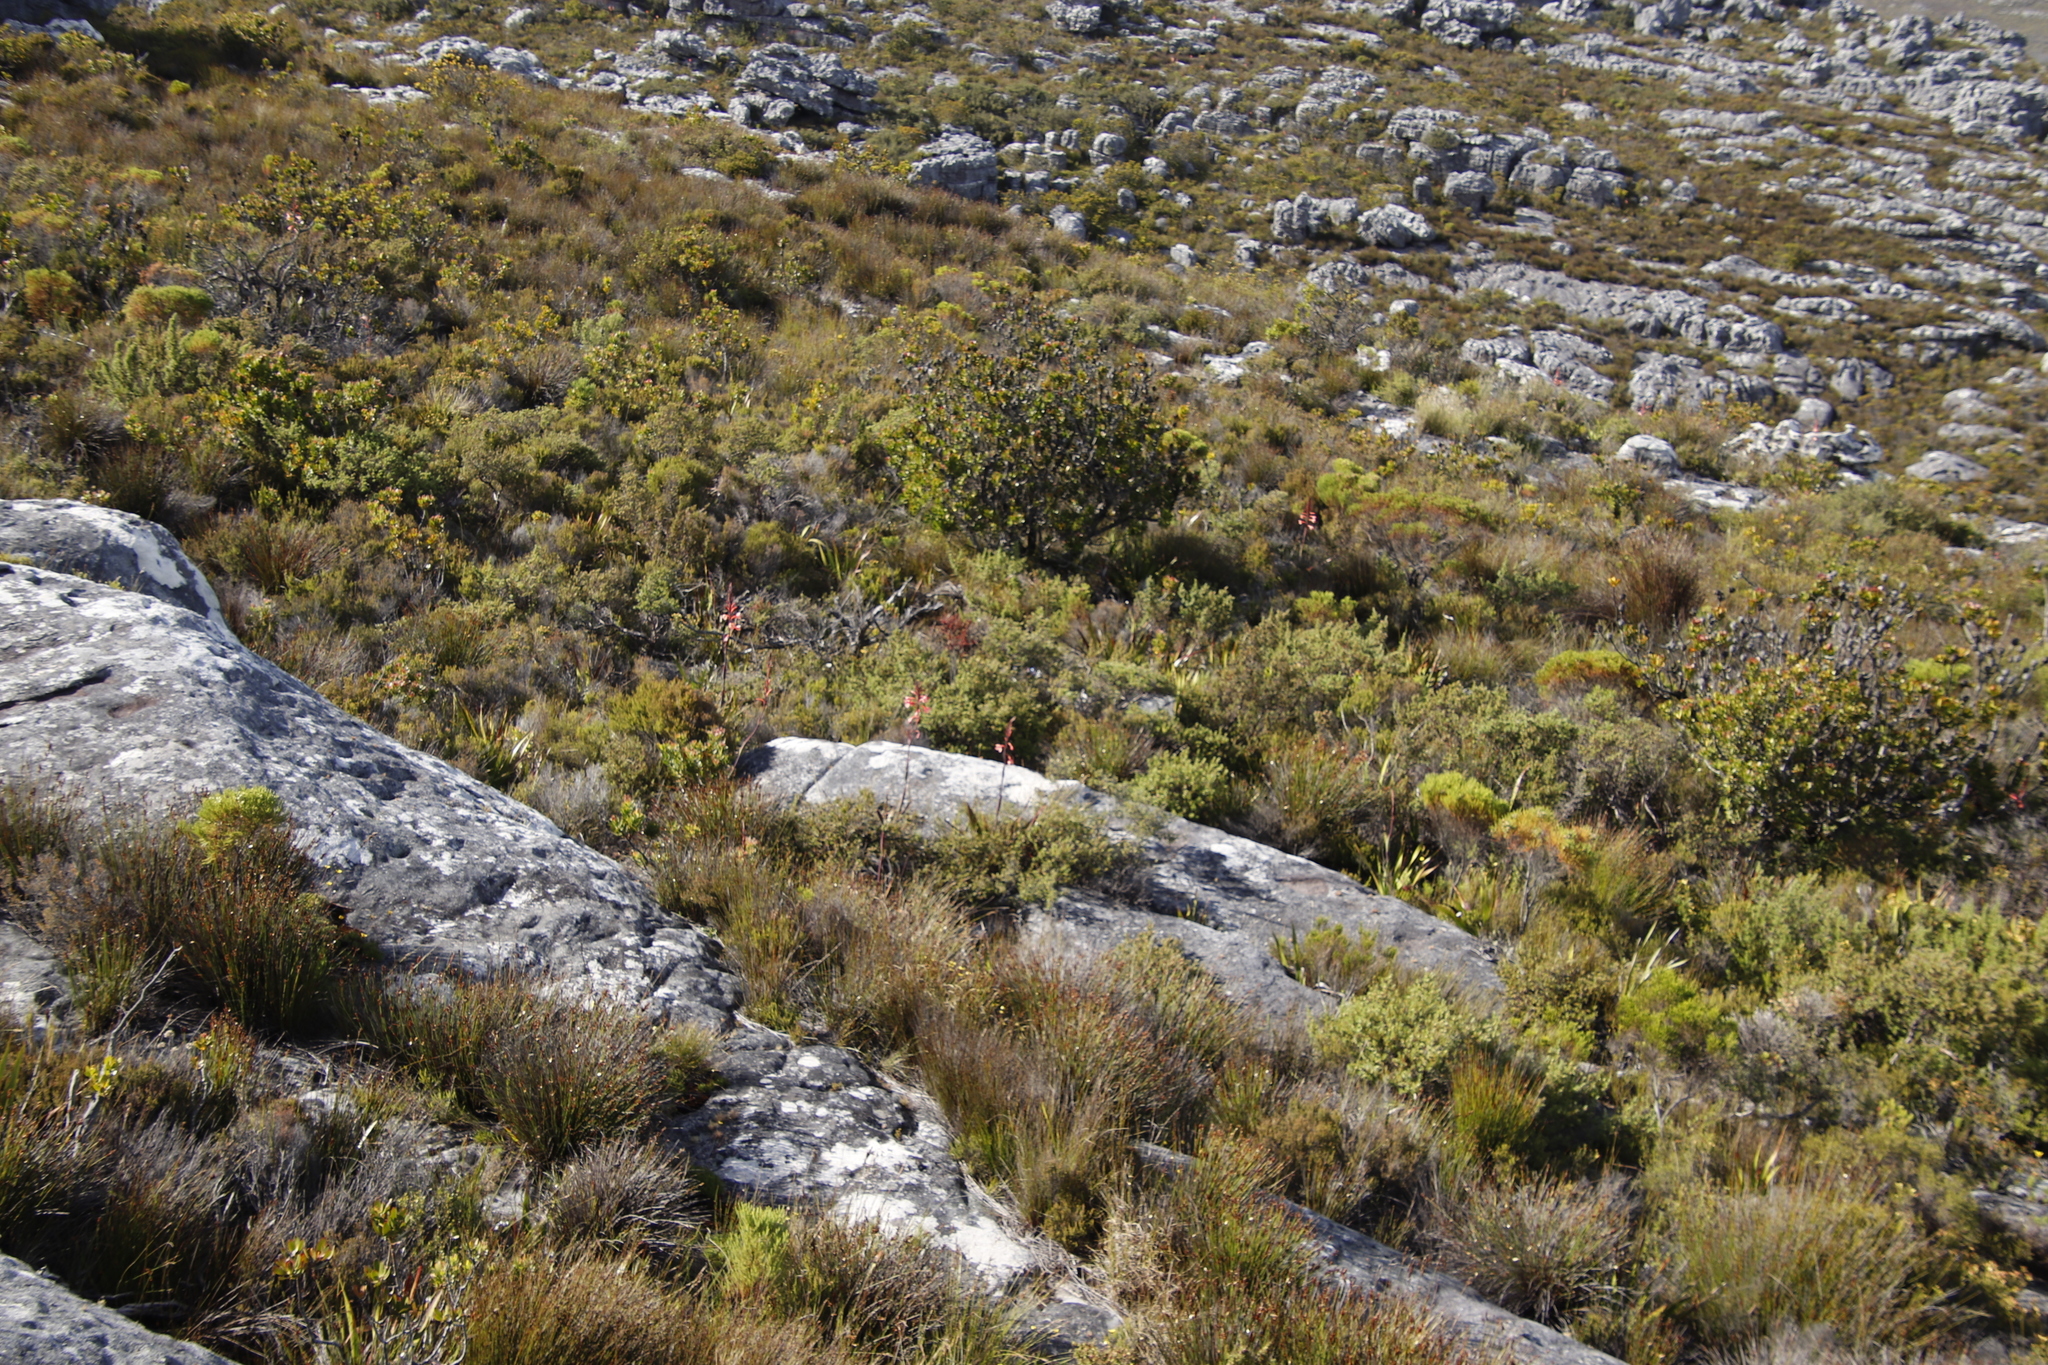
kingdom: Plantae
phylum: Tracheophyta
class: Liliopsida
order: Asparagales
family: Iridaceae
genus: Watsonia
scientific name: Watsonia tabularis
